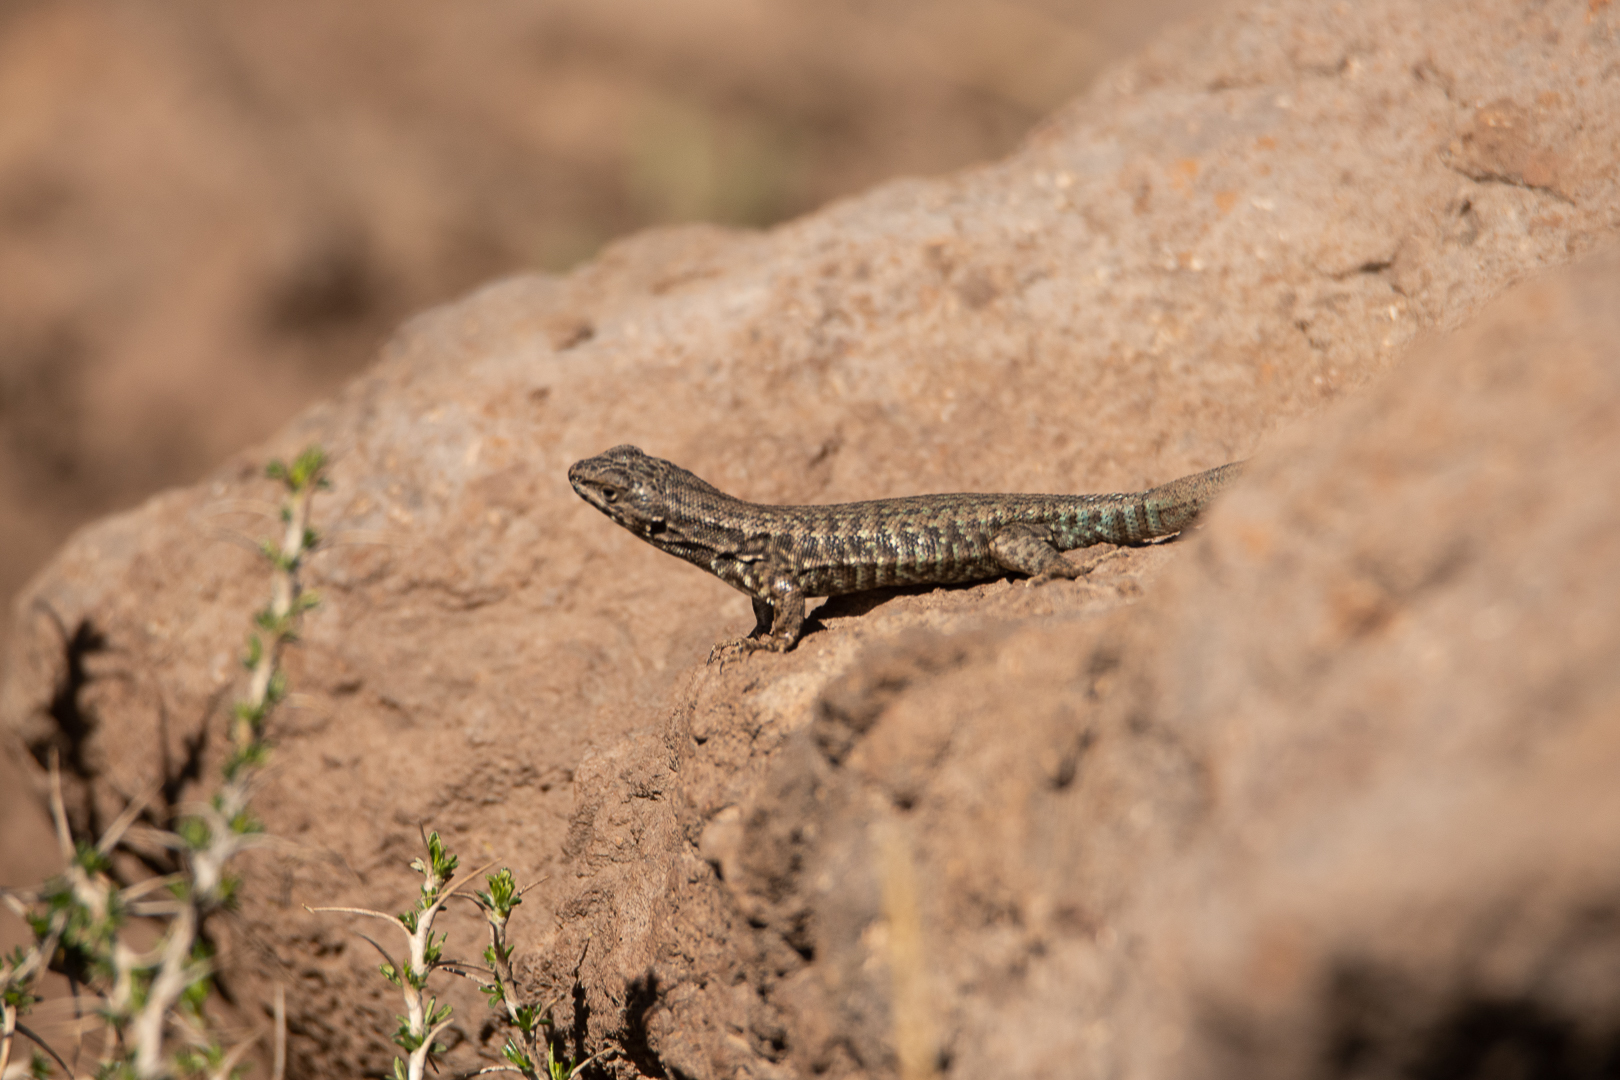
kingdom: Animalia
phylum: Chordata
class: Squamata
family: Liolaemidae
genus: Liolaemus
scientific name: Liolaemus nigroviridis
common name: Black-green tree iguana
